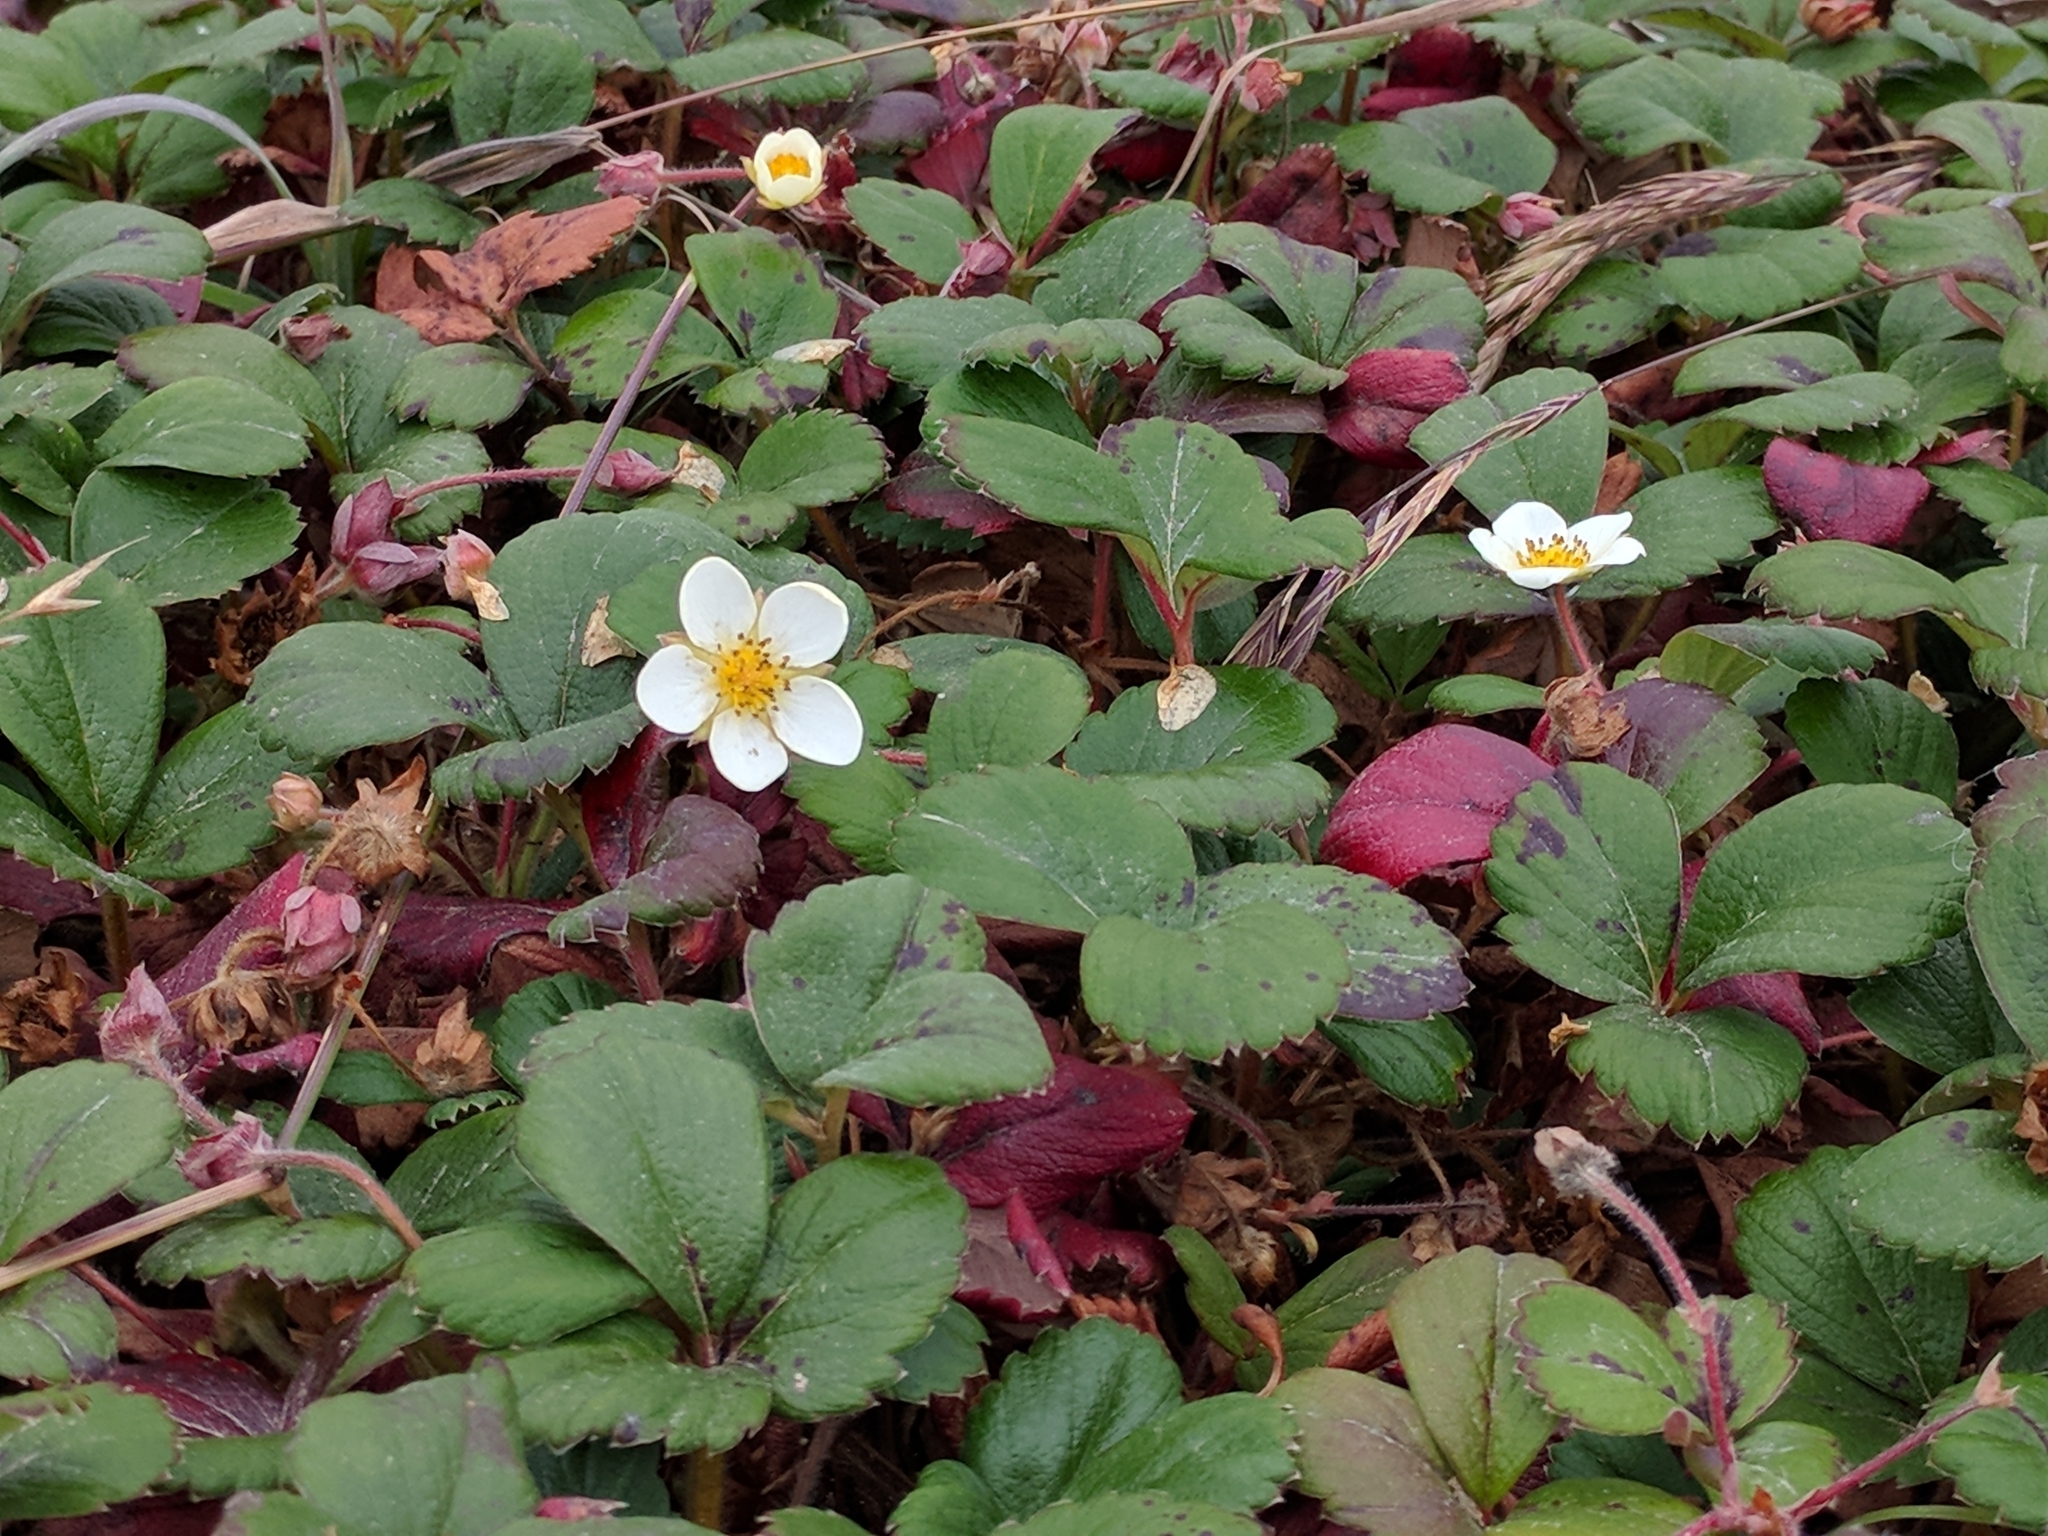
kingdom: Plantae
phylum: Tracheophyta
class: Magnoliopsida
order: Rosales
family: Rosaceae
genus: Fragaria
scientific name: Fragaria chiloensis
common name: Beach strawberry
